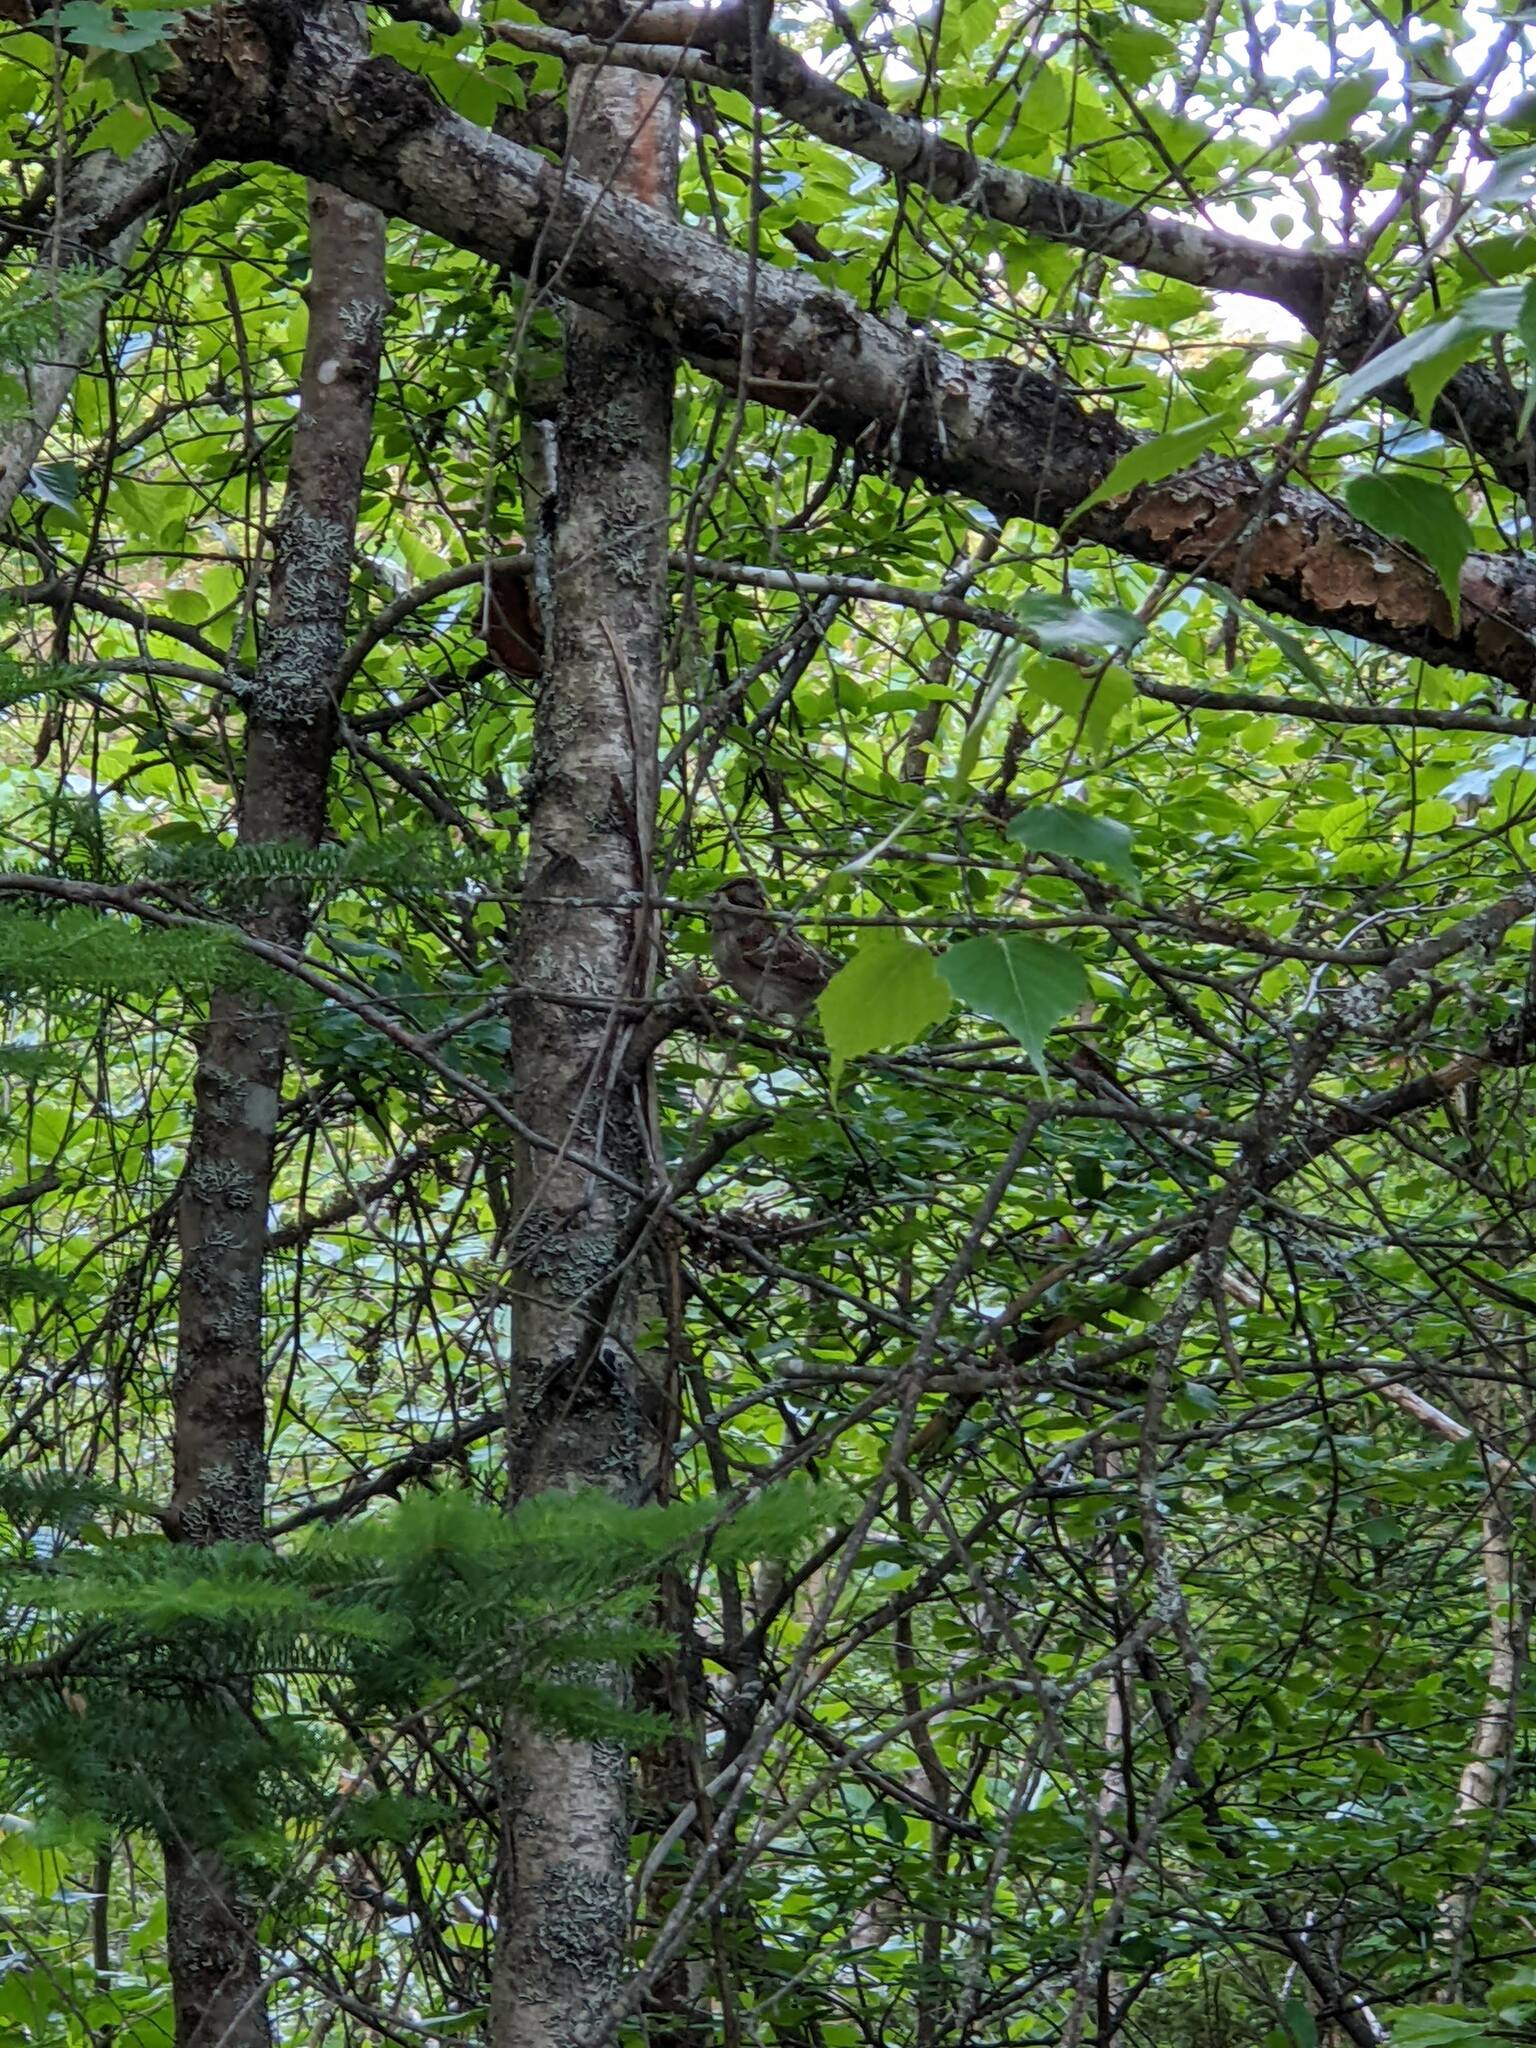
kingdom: Animalia
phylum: Chordata
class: Aves
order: Passeriformes
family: Passerellidae
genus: Zonotrichia
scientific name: Zonotrichia albicollis
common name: White-throated sparrow
